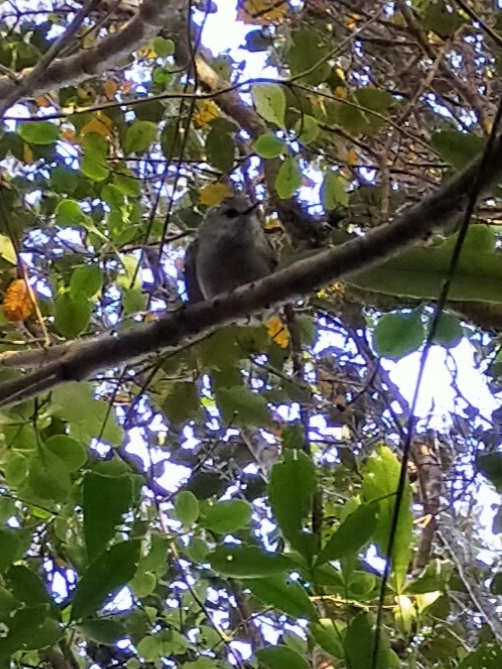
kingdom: Animalia
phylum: Chordata
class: Aves
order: Passeriformes
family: Acanthisittidae
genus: Acanthisitta
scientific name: Acanthisitta chloris
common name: Rifleman
